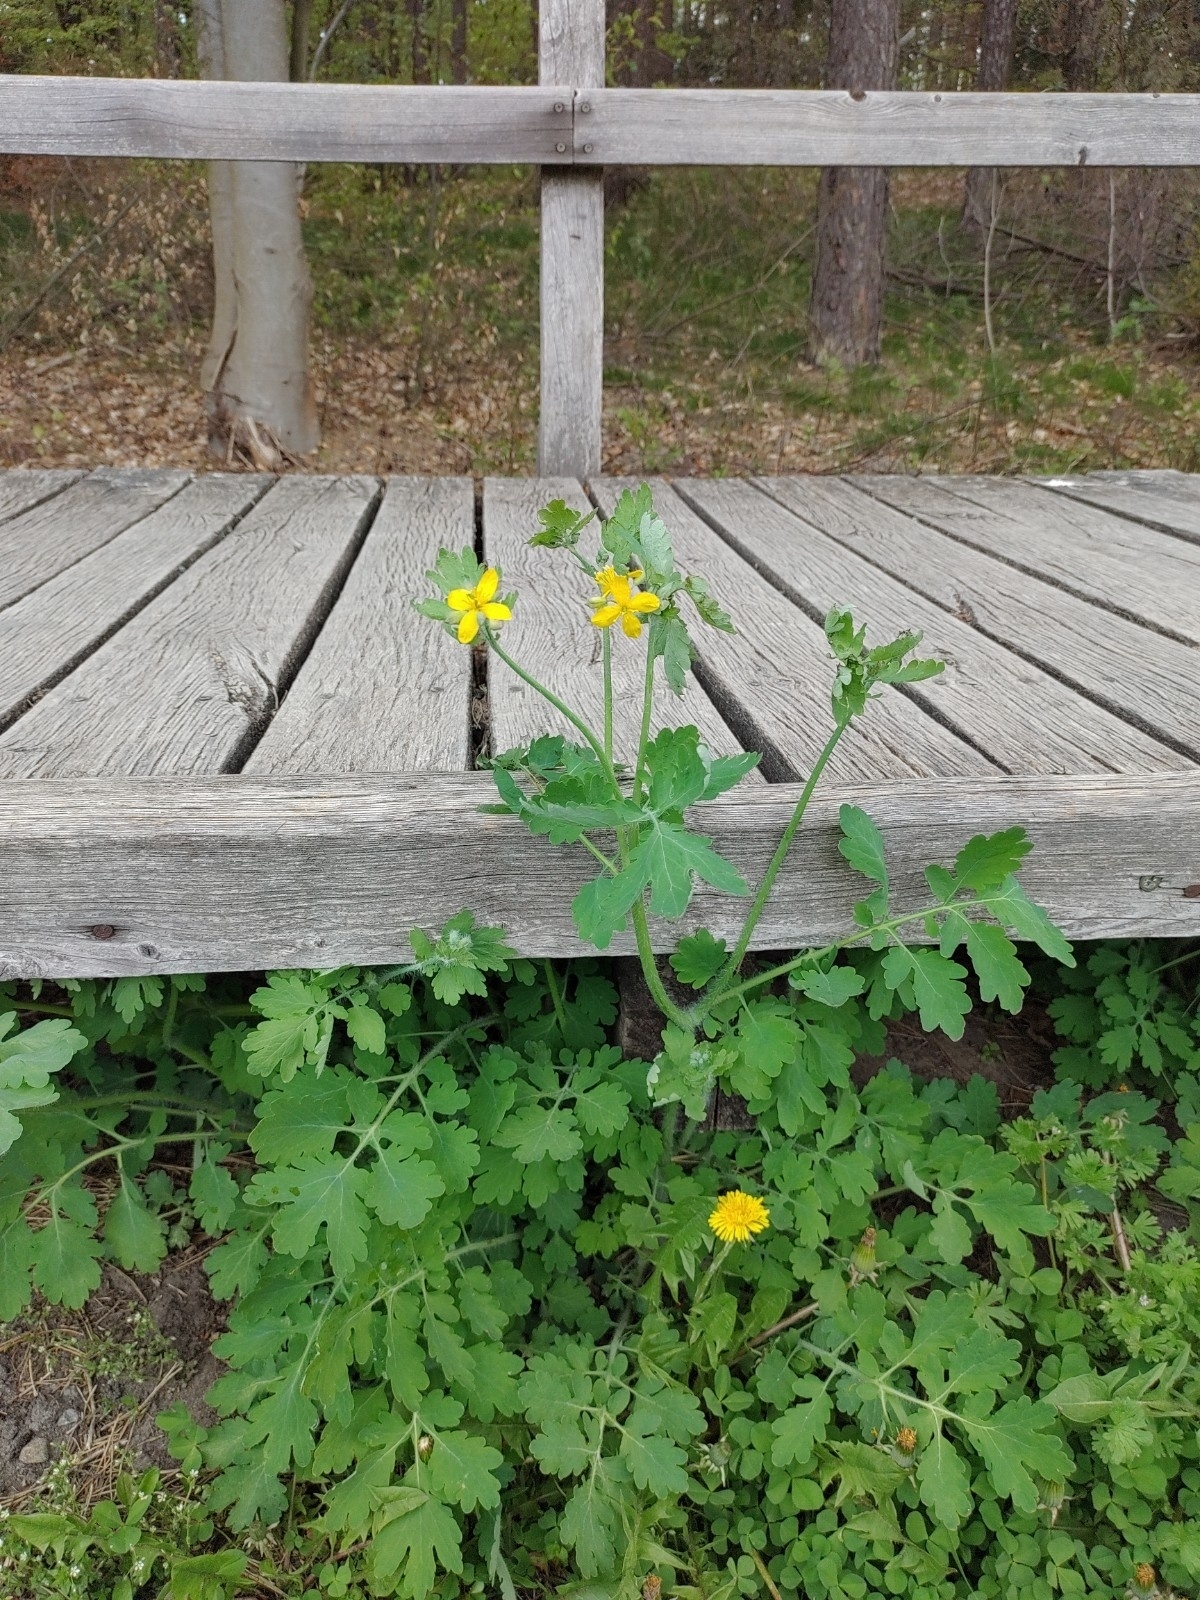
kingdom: Plantae
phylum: Tracheophyta
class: Magnoliopsida
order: Ranunculales
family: Papaveraceae
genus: Chelidonium
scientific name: Chelidonium majus
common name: Greater celandine
